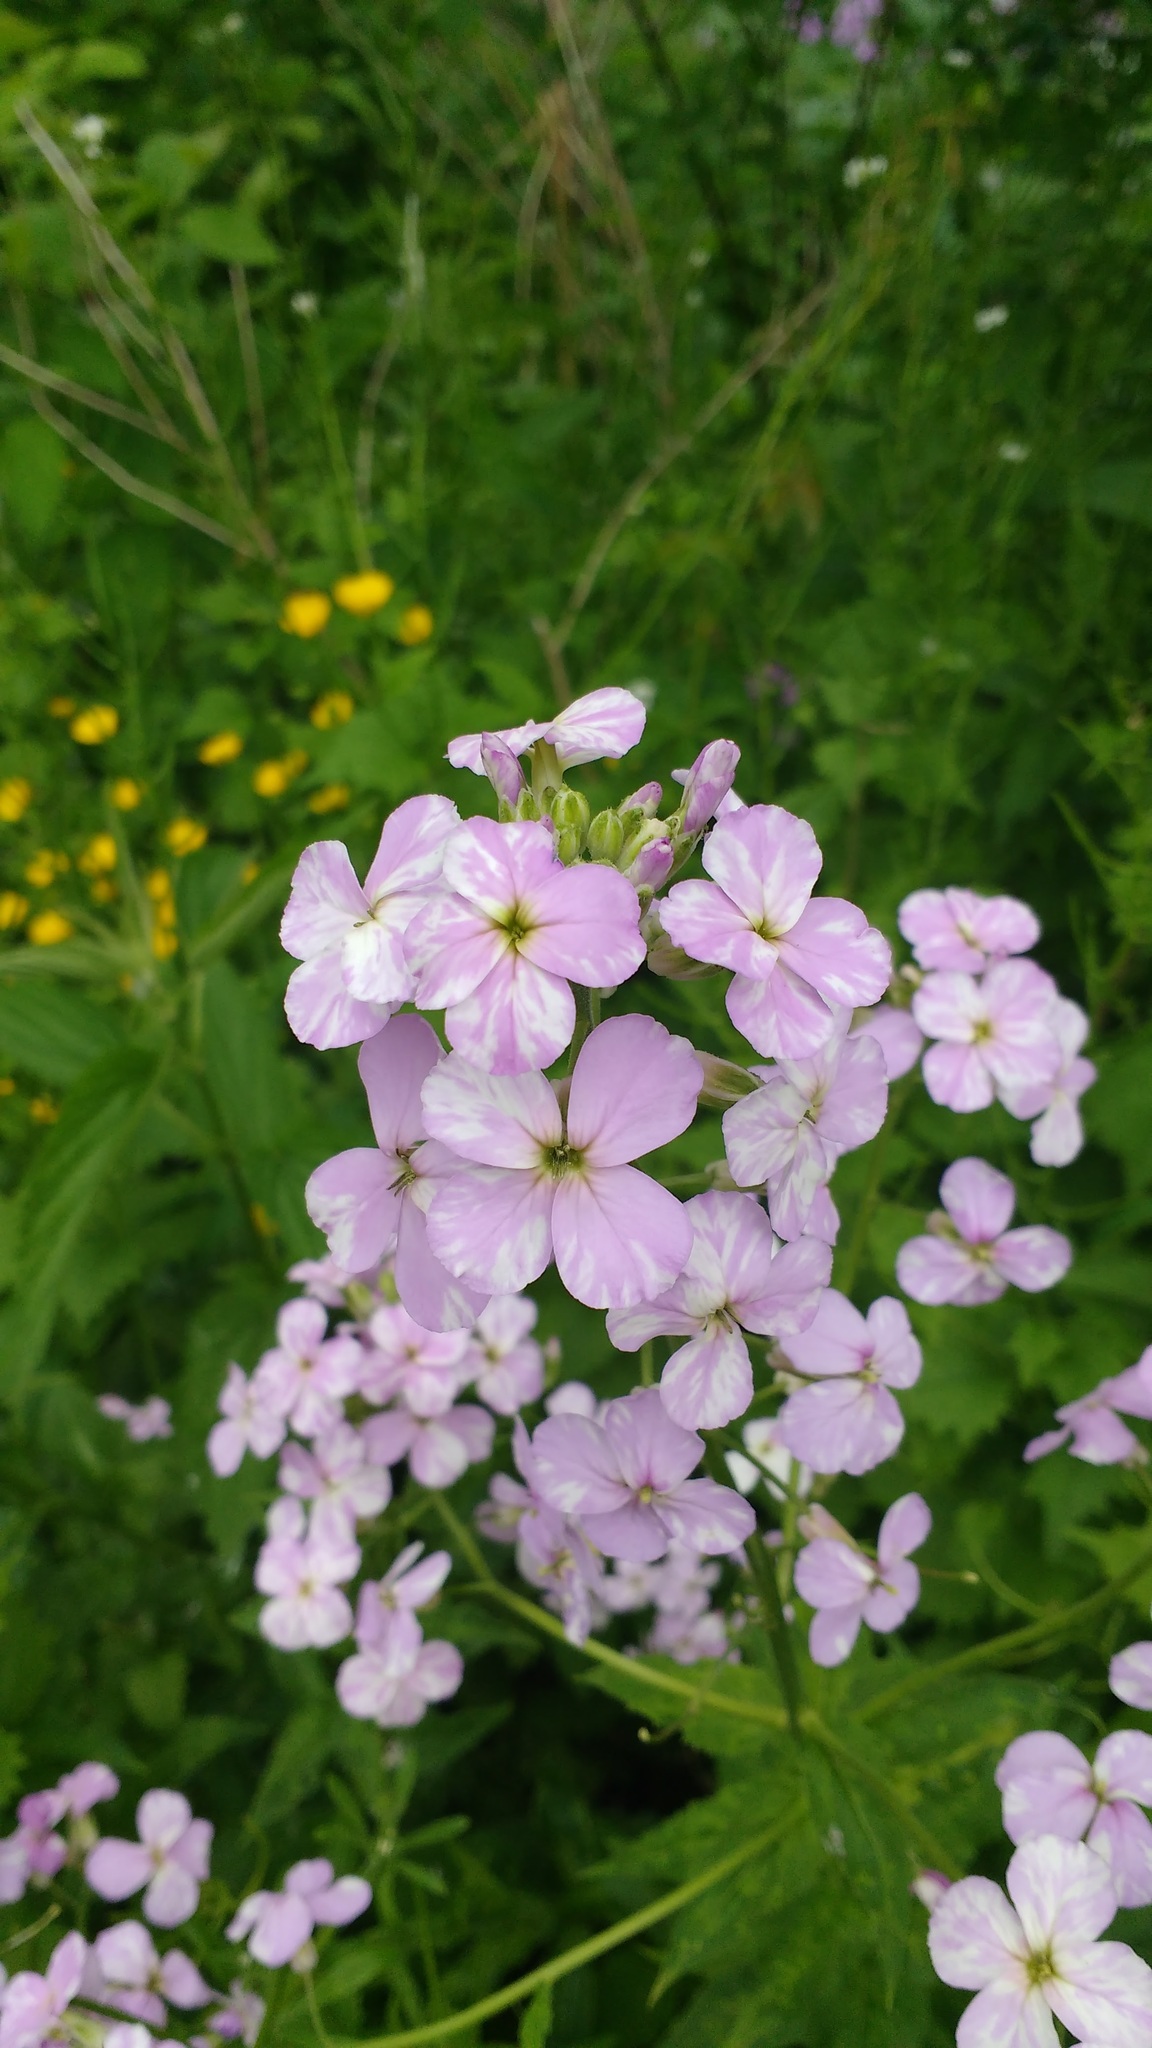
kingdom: Plantae
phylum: Tracheophyta
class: Magnoliopsida
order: Brassicales
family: Brassicaceae
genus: Hesperis
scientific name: Hesperis matronalis
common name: Dame's-violet
